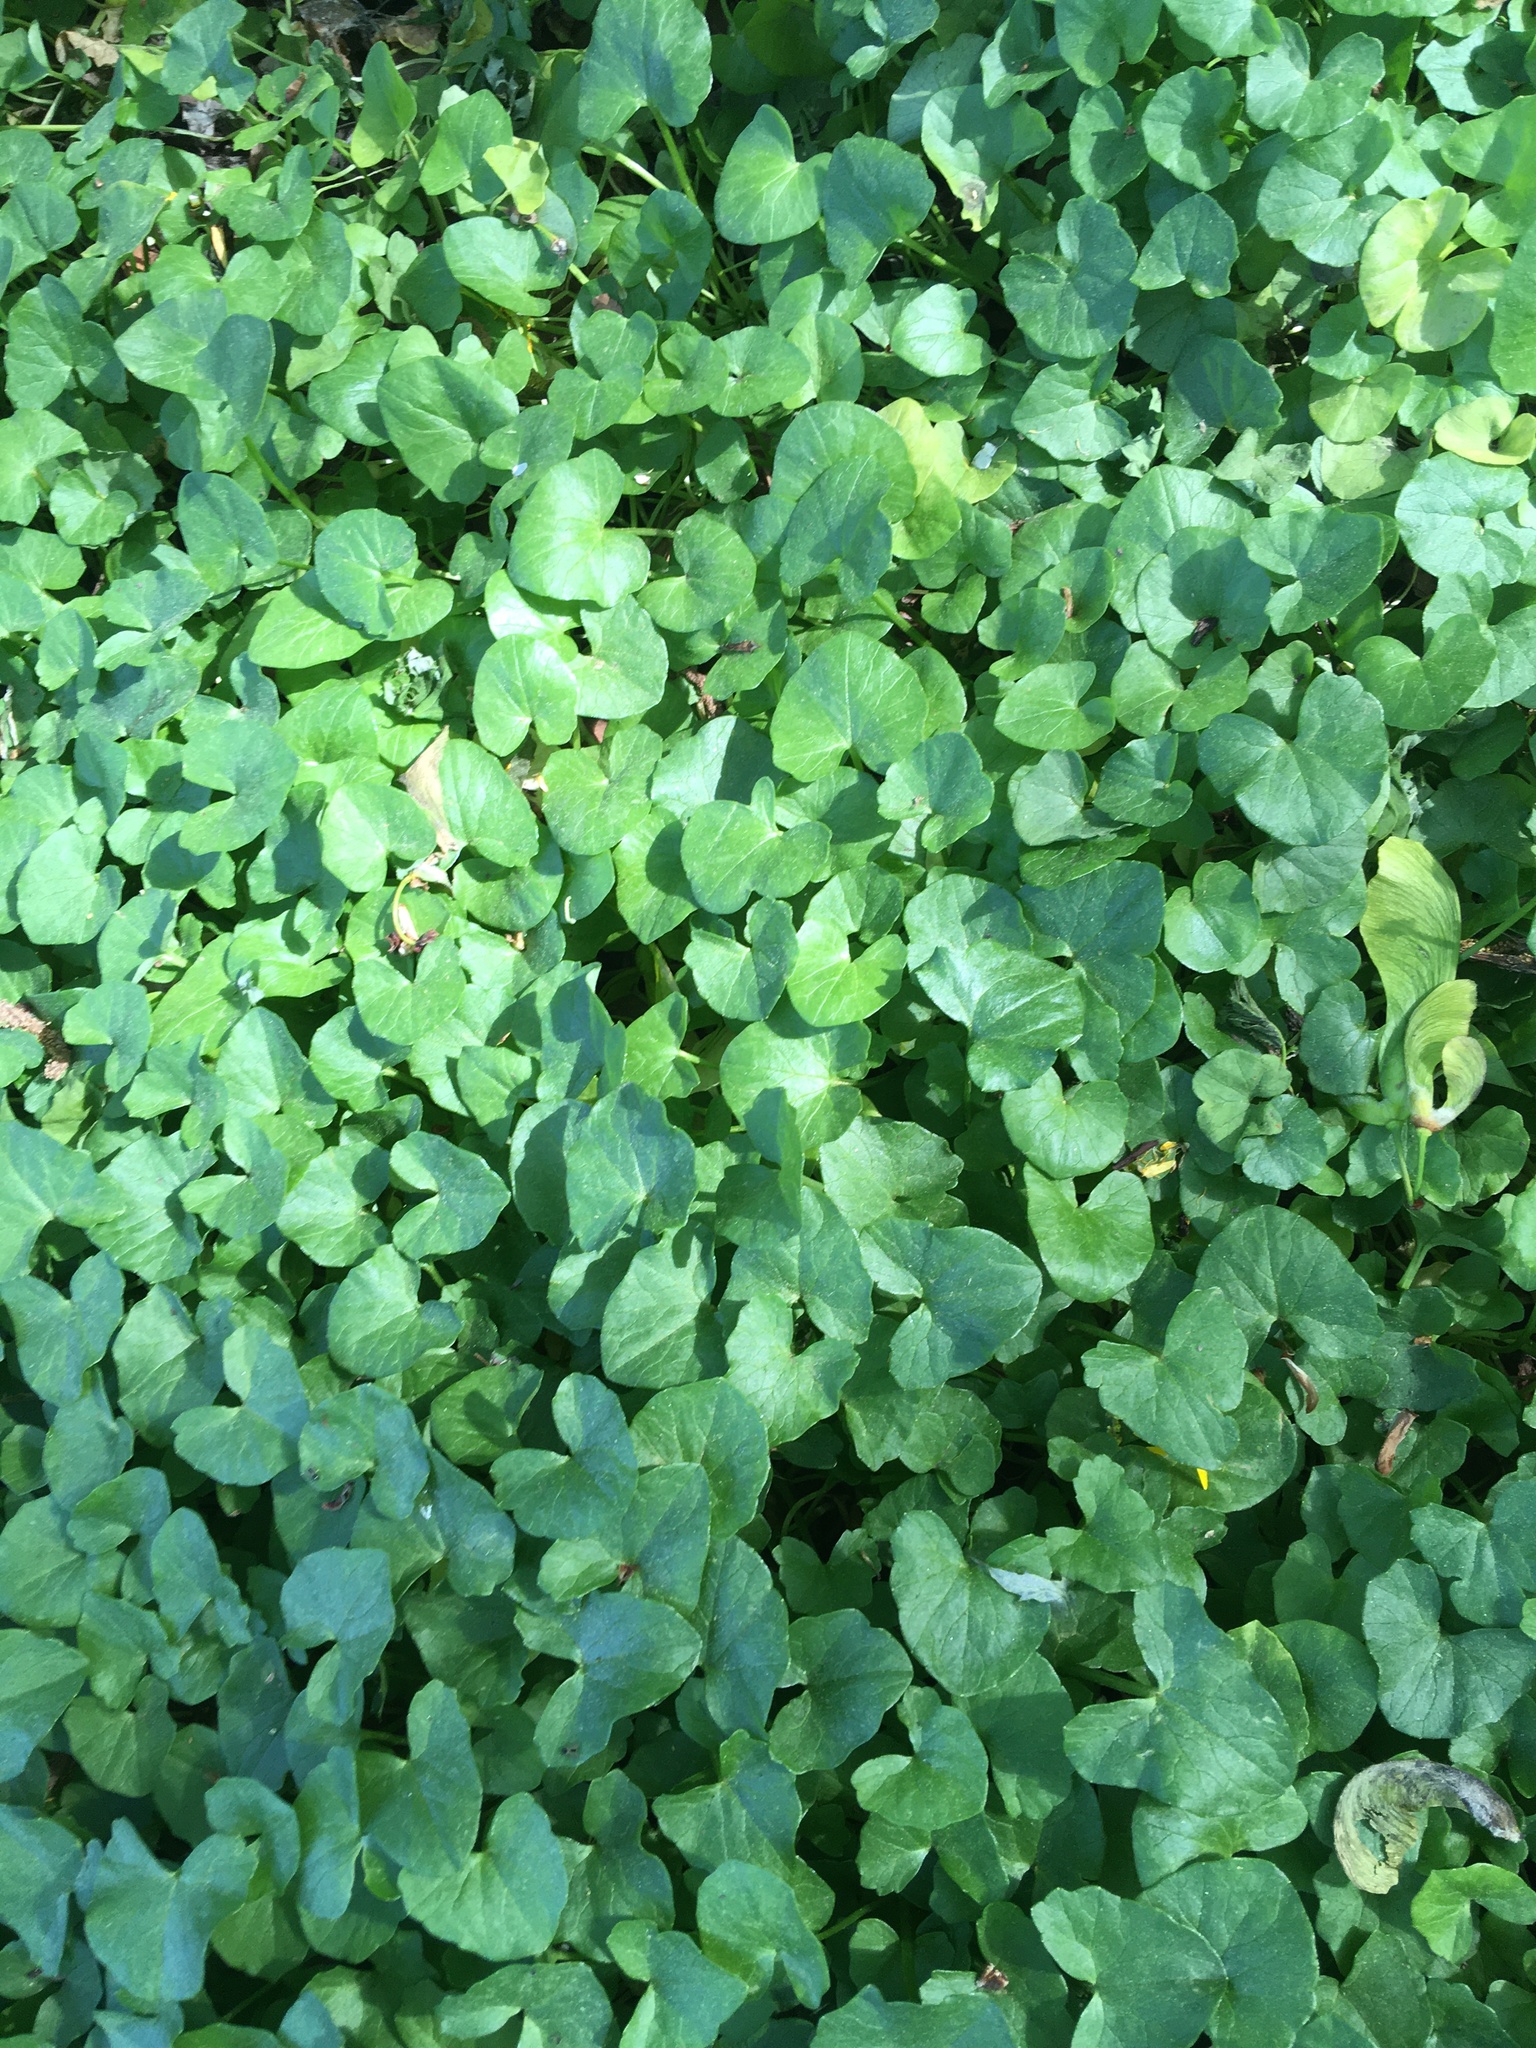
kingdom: Plantae
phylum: Tracheophyta
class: Magnoliopsida
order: Ranunculales
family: Ranunculaceae
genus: Ficaria
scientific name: Ficaria verna
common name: Lesser celandine
